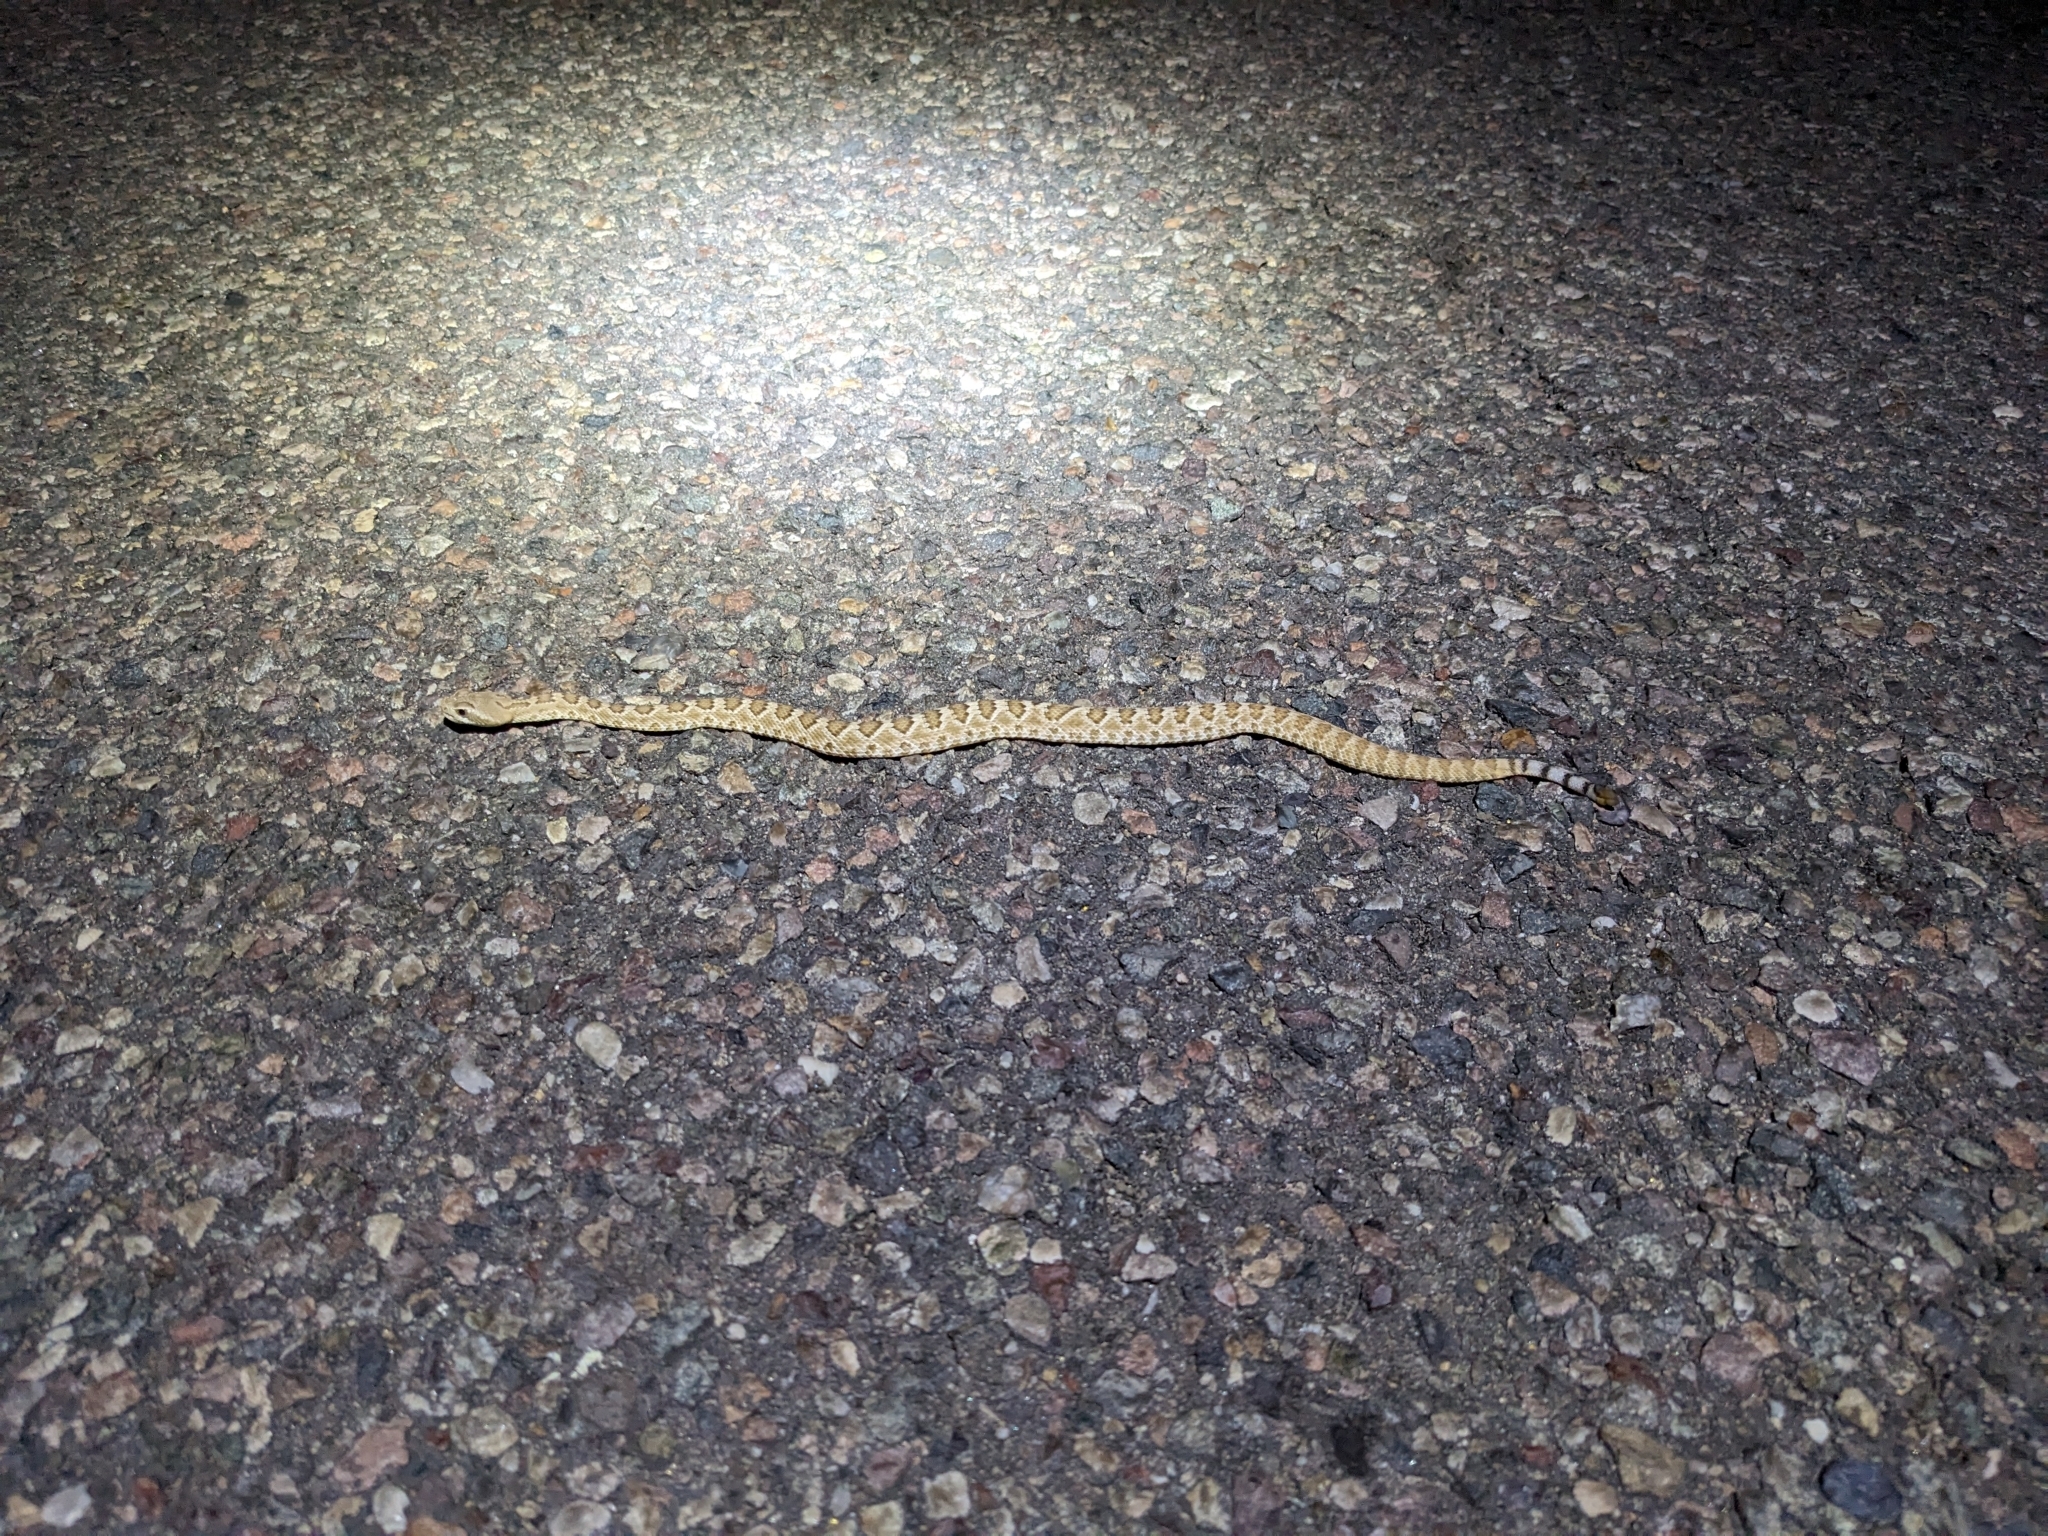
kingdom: Animalia
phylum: Chordata
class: Squamata
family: Viperidae
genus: Crotalus
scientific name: Crotalus scutulatus
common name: Scutulatus
